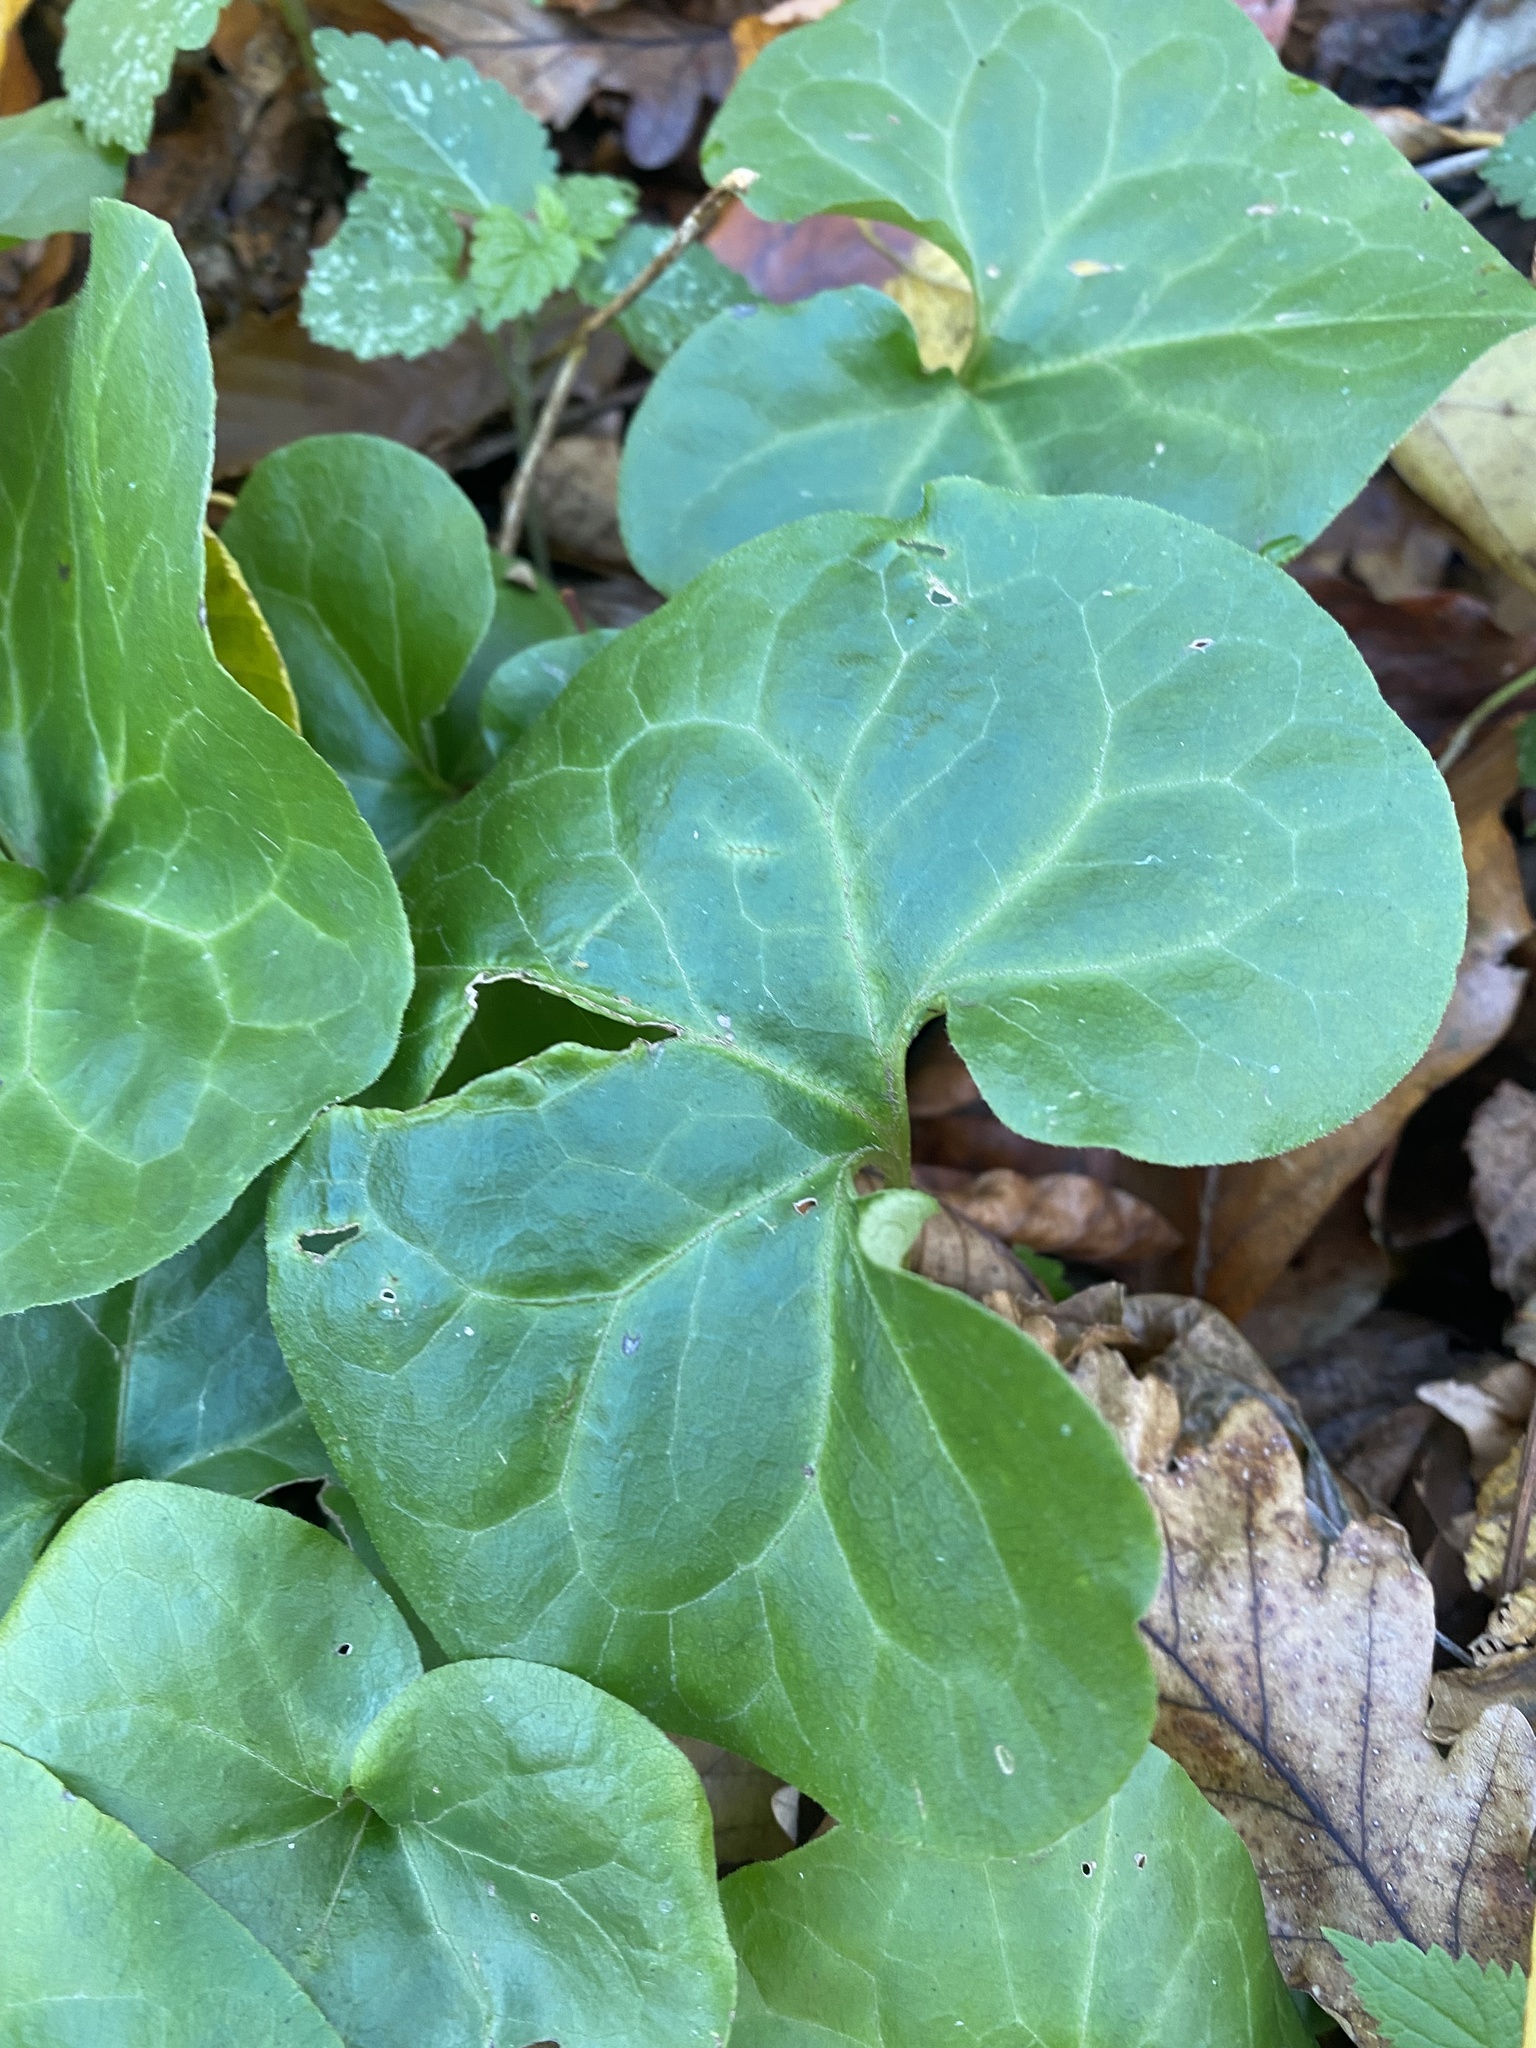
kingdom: Plantae
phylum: Tracheophyta
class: Magnoliopsida
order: Piperales
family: Aristolochiaceae
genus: Asarum
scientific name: Asarum europaeum
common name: Asarabacca
